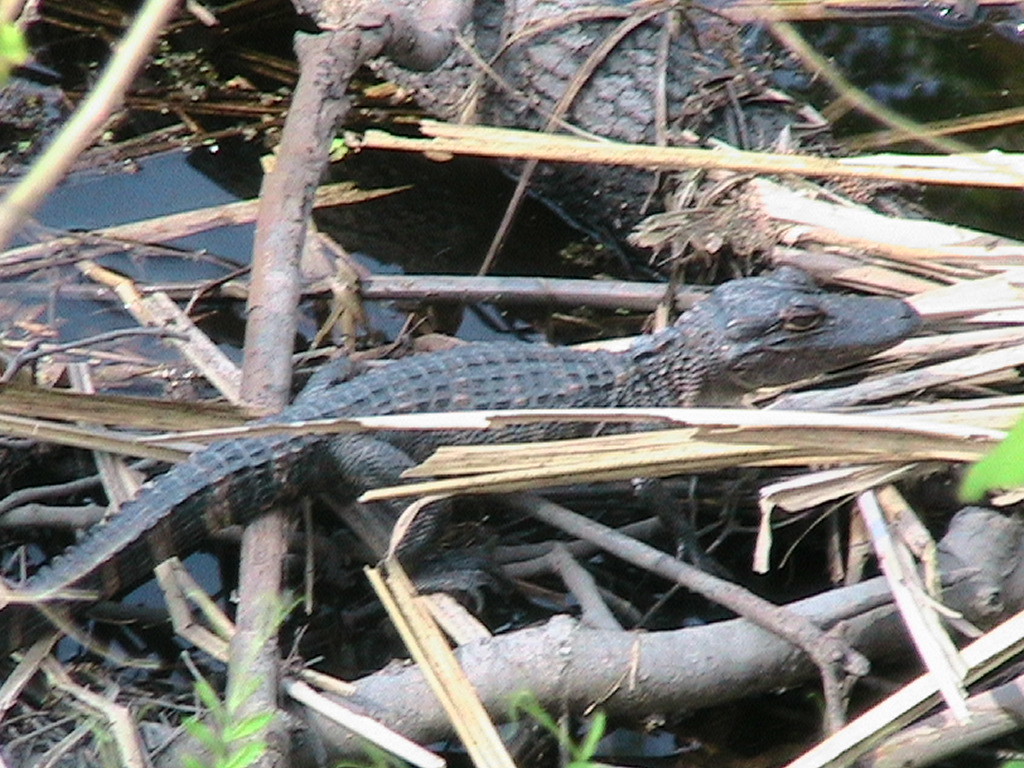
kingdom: Animalia
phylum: Chordata
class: Crocodylia
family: Alligatoridae
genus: Alligator
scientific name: Alligator mississippiensis
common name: American alligator
